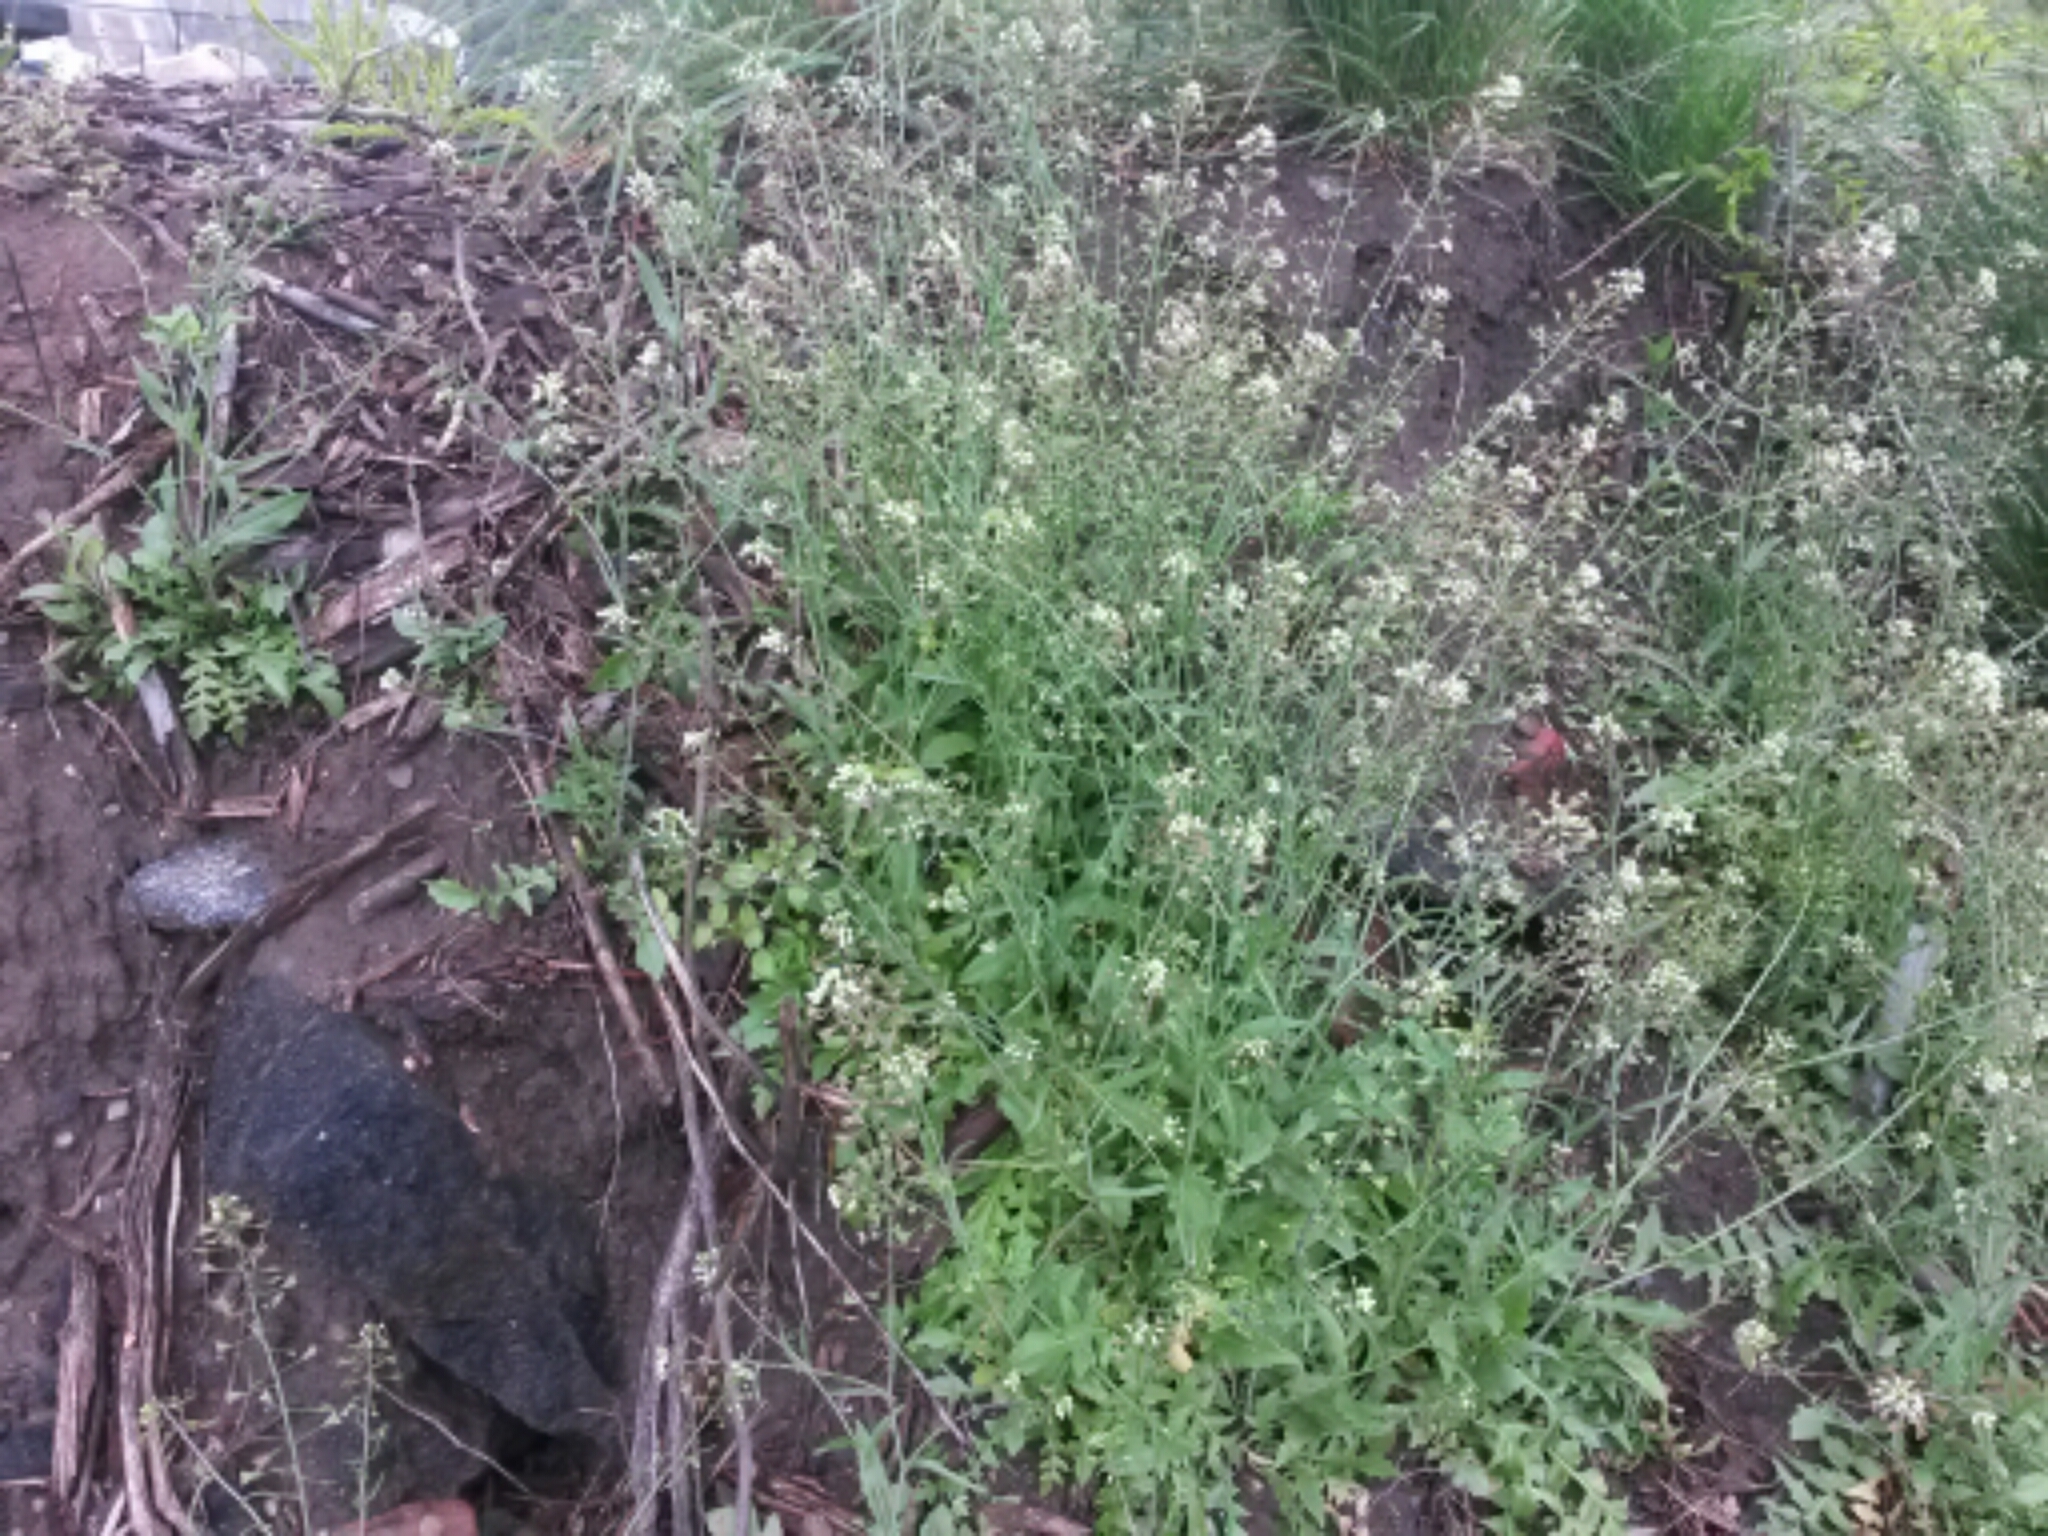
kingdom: Plantae
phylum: Tracheophyta
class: Magnoliopsida
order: Brassicales
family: Brassicaceae
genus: Capsella
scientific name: Capsella bursa-pastoris
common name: Shepherd's purse
